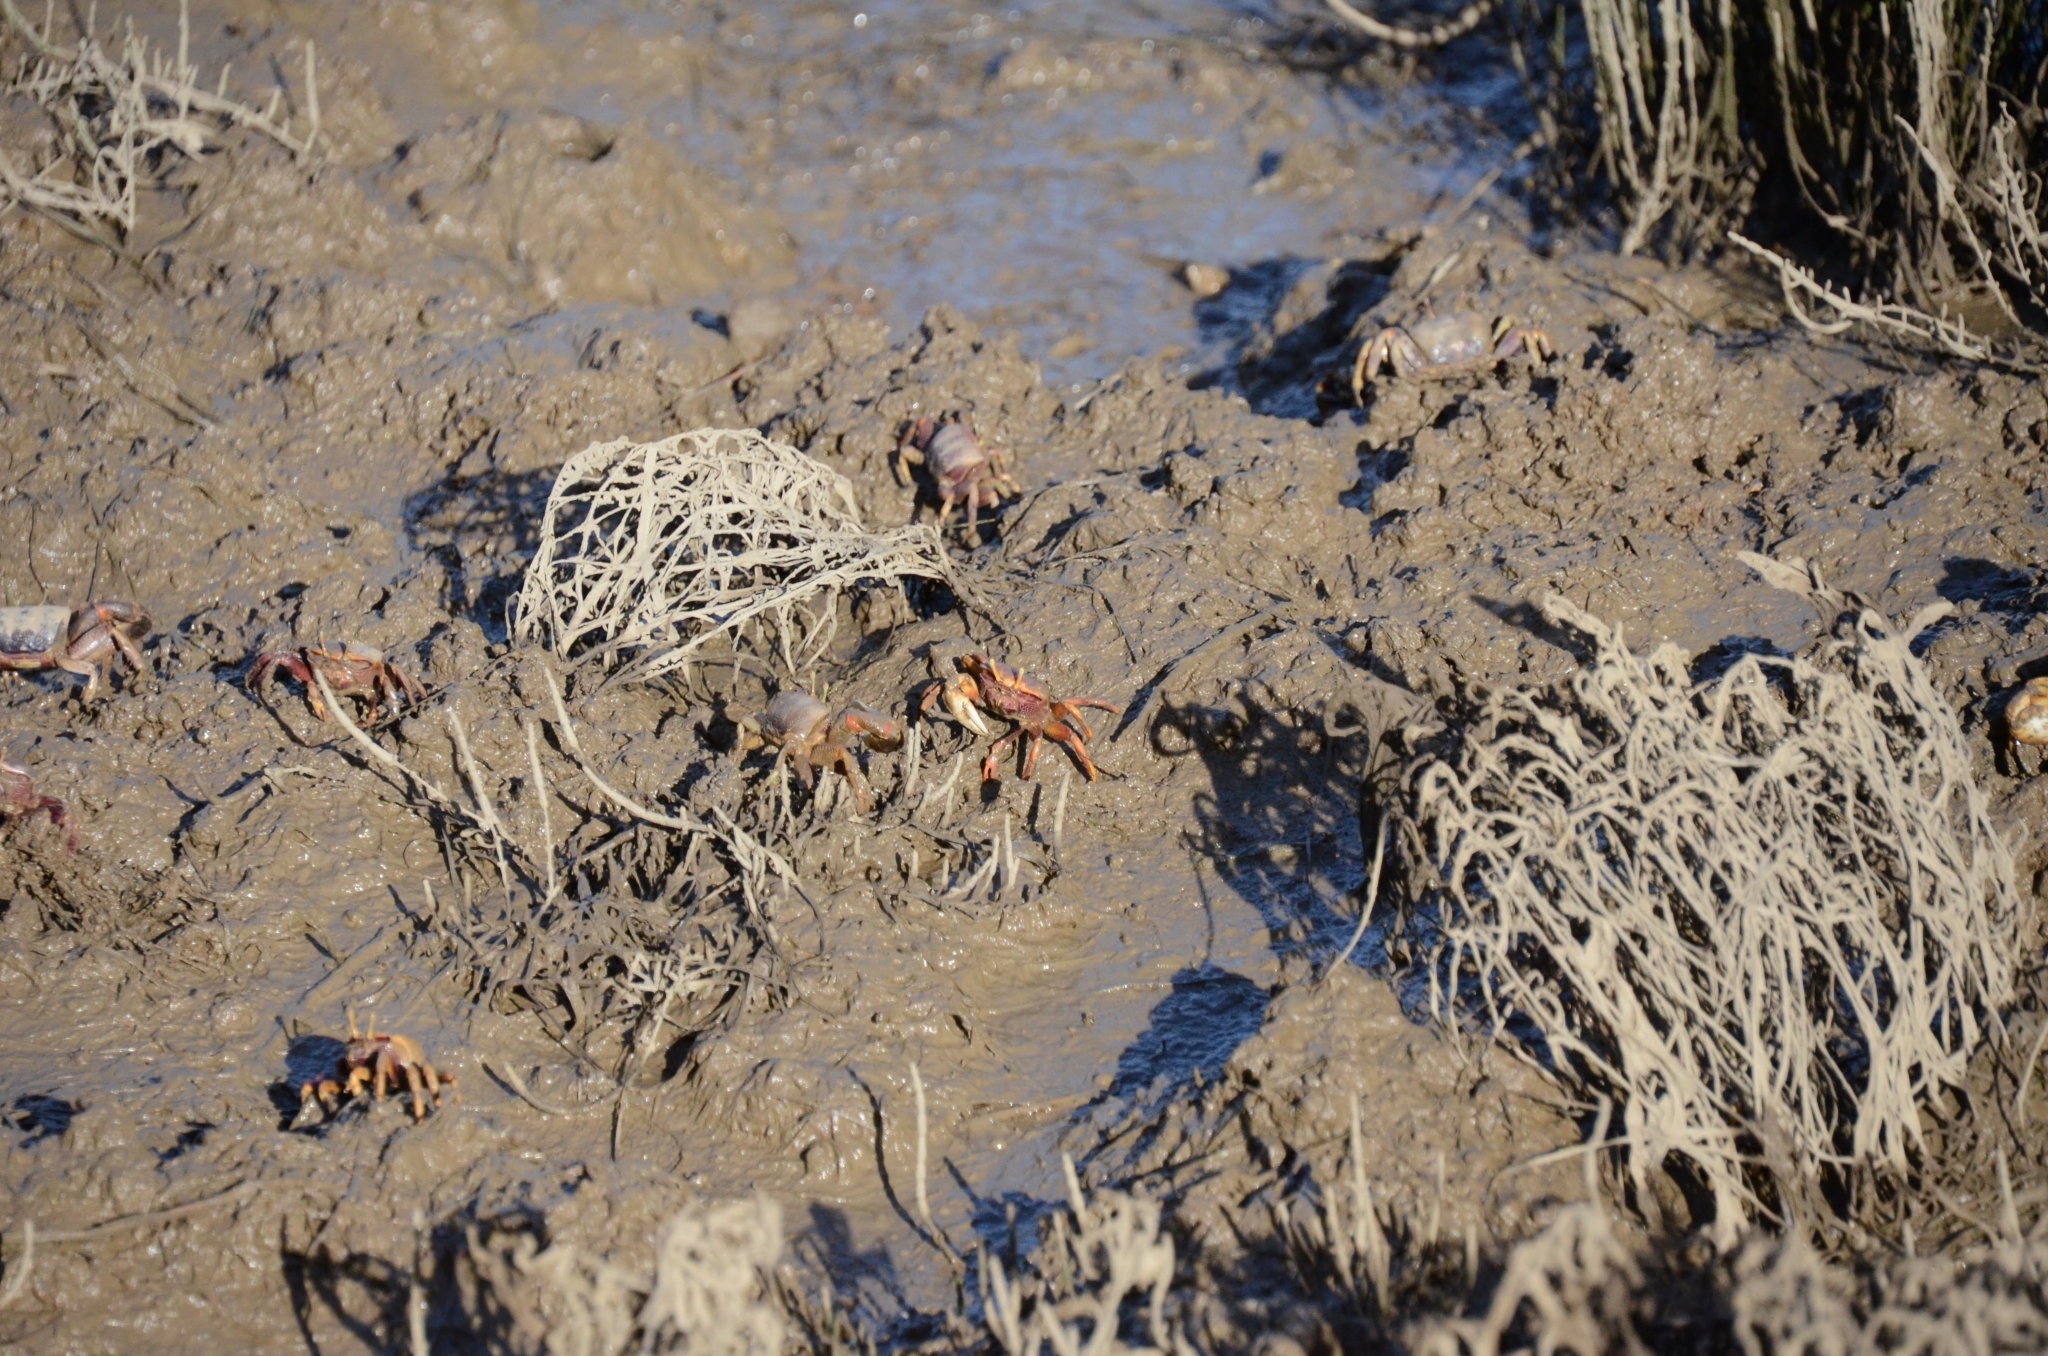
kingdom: Animalia
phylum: Arthropoda
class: Malacostraca
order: Decapoda
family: Ocypodidae
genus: Afruca
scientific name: Afruca tangeri
